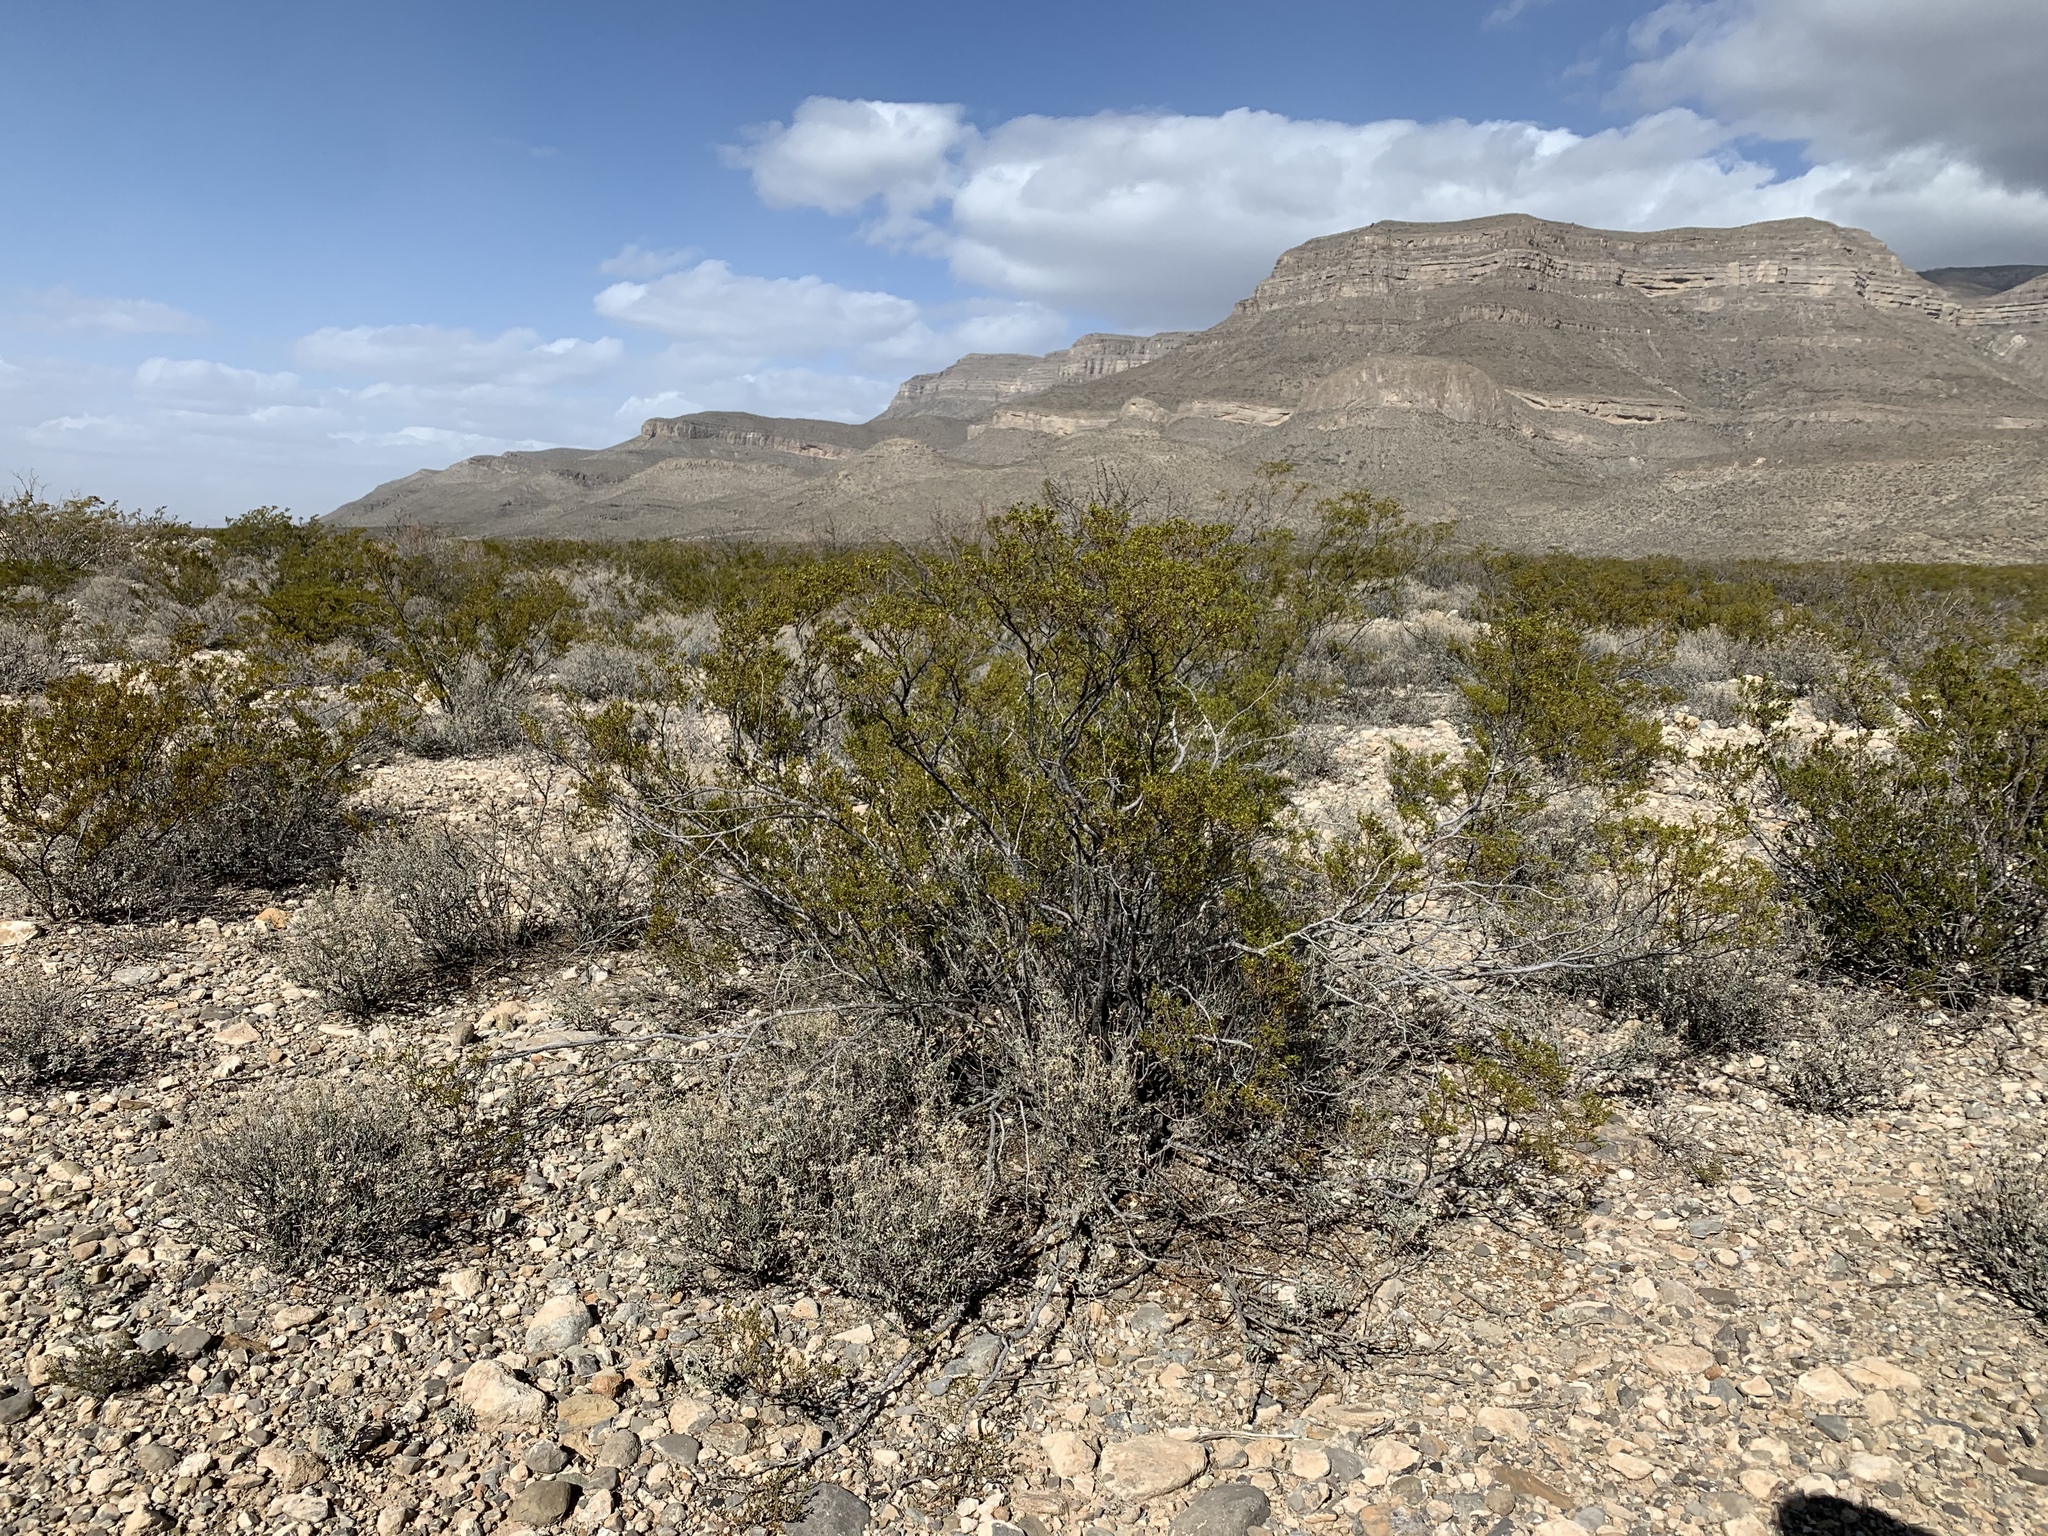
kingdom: Plantae
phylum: Tracheophyta
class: Magnoliopsida
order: Zygophyllales
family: Zygophyllaceae
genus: Larrea
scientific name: Larrea tridentata
